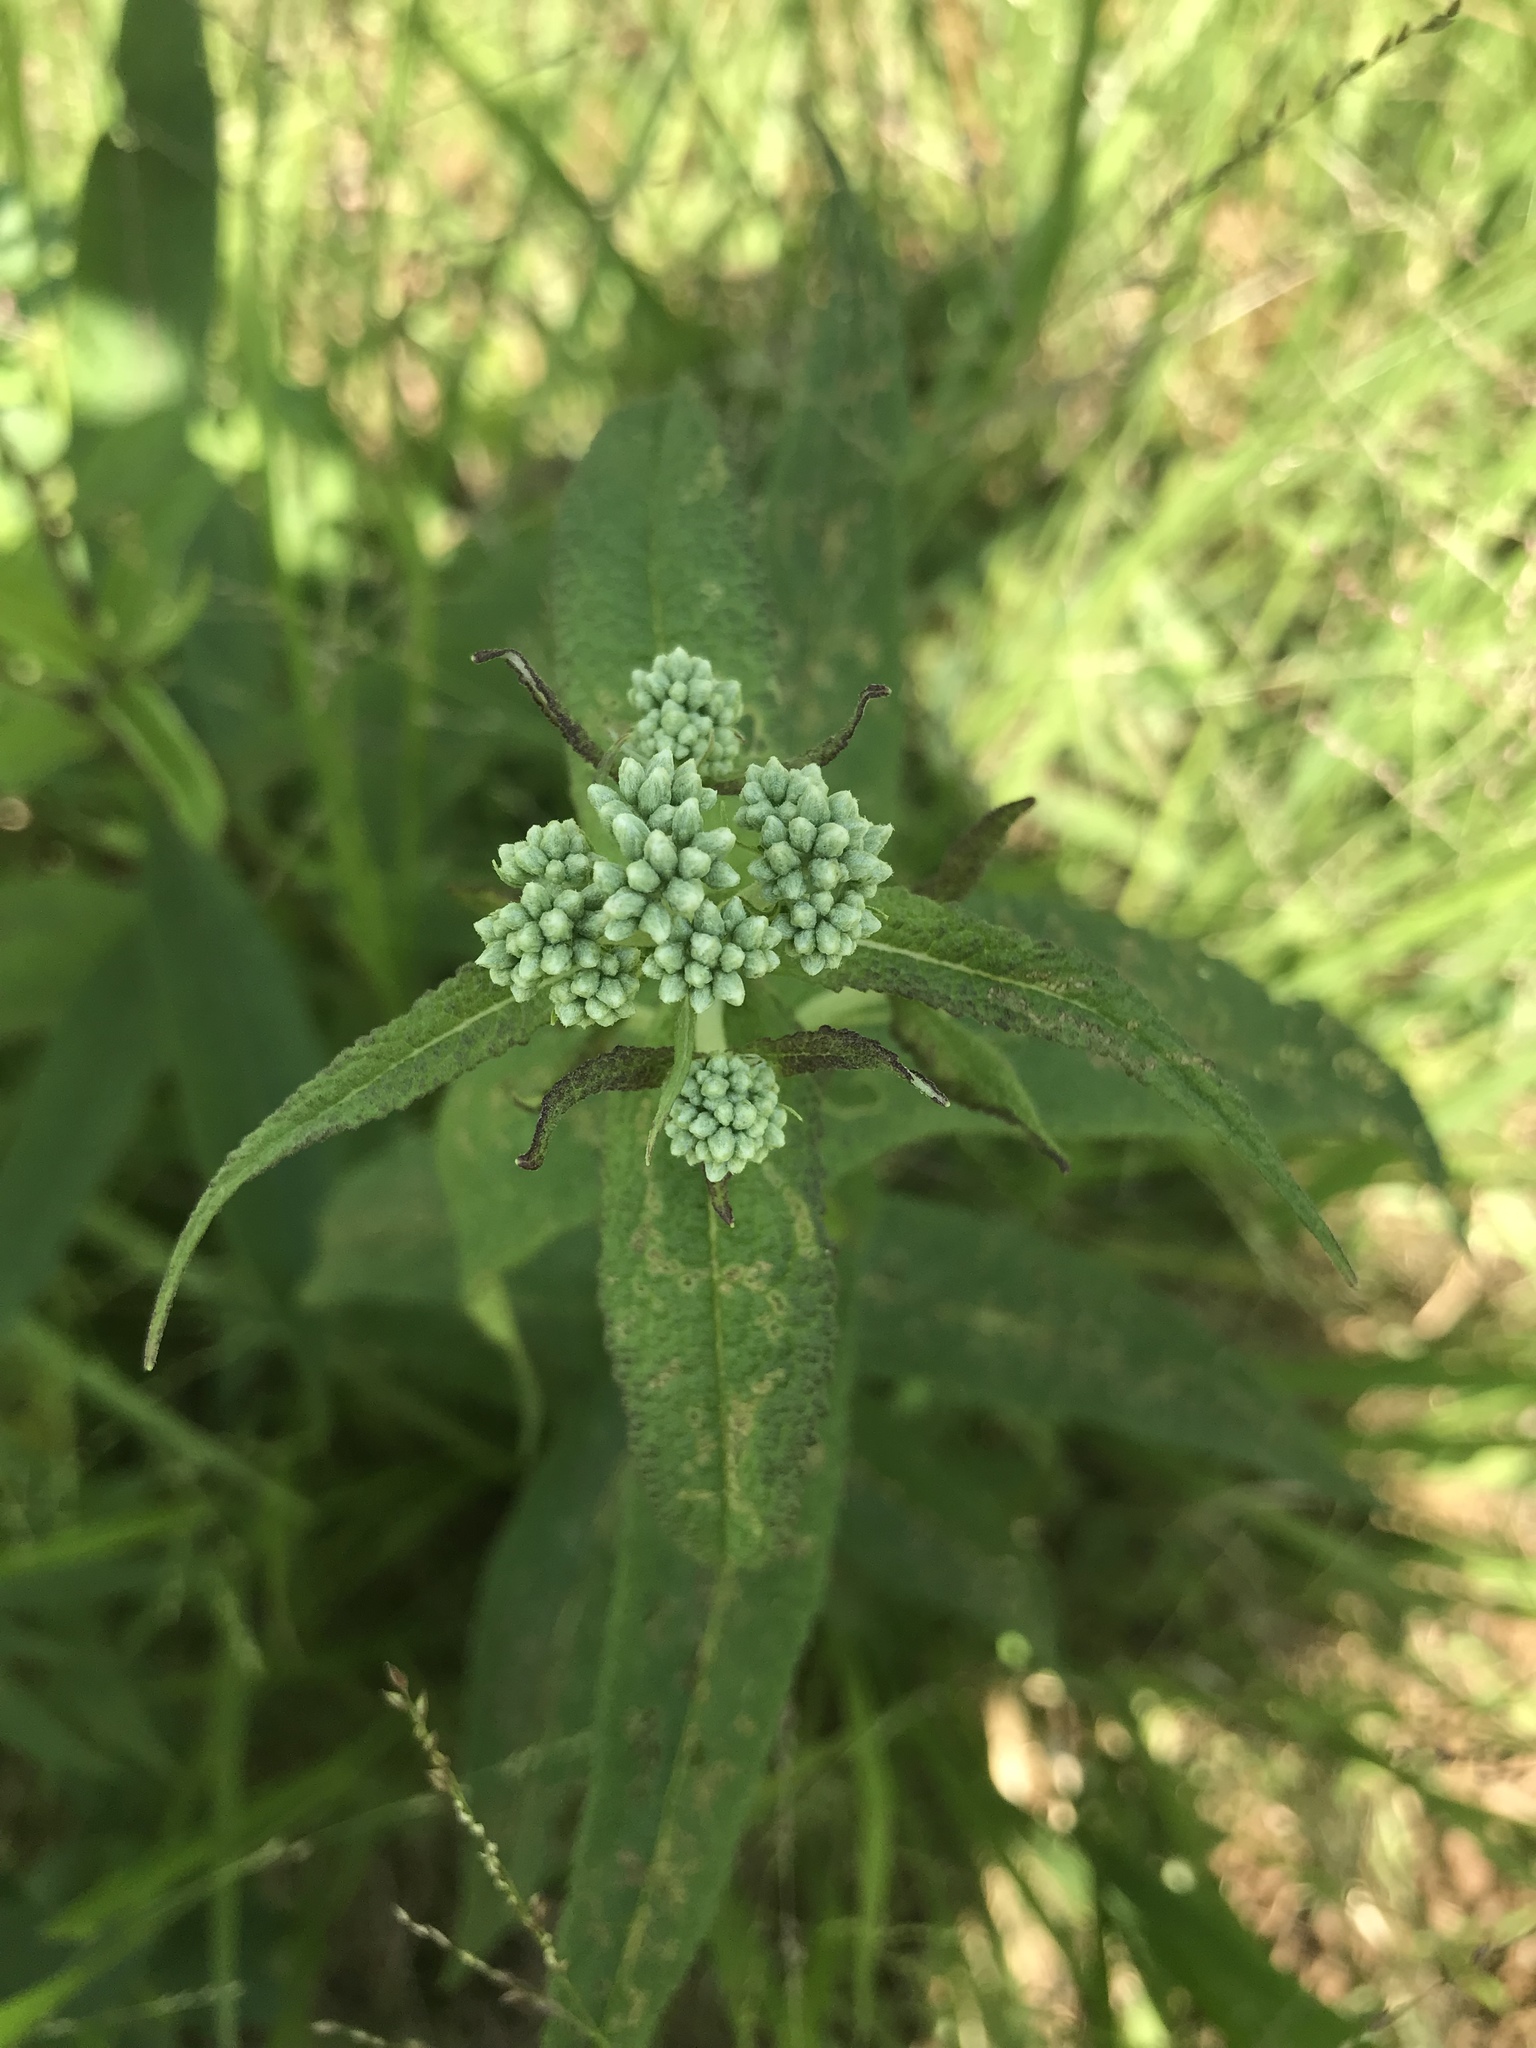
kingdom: Plantae
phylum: Tracheophyta
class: Magnoliopsida
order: Asterales
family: Asteraceae
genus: Eupatorium
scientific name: Eupatorium perfoliatum
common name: Boneset
